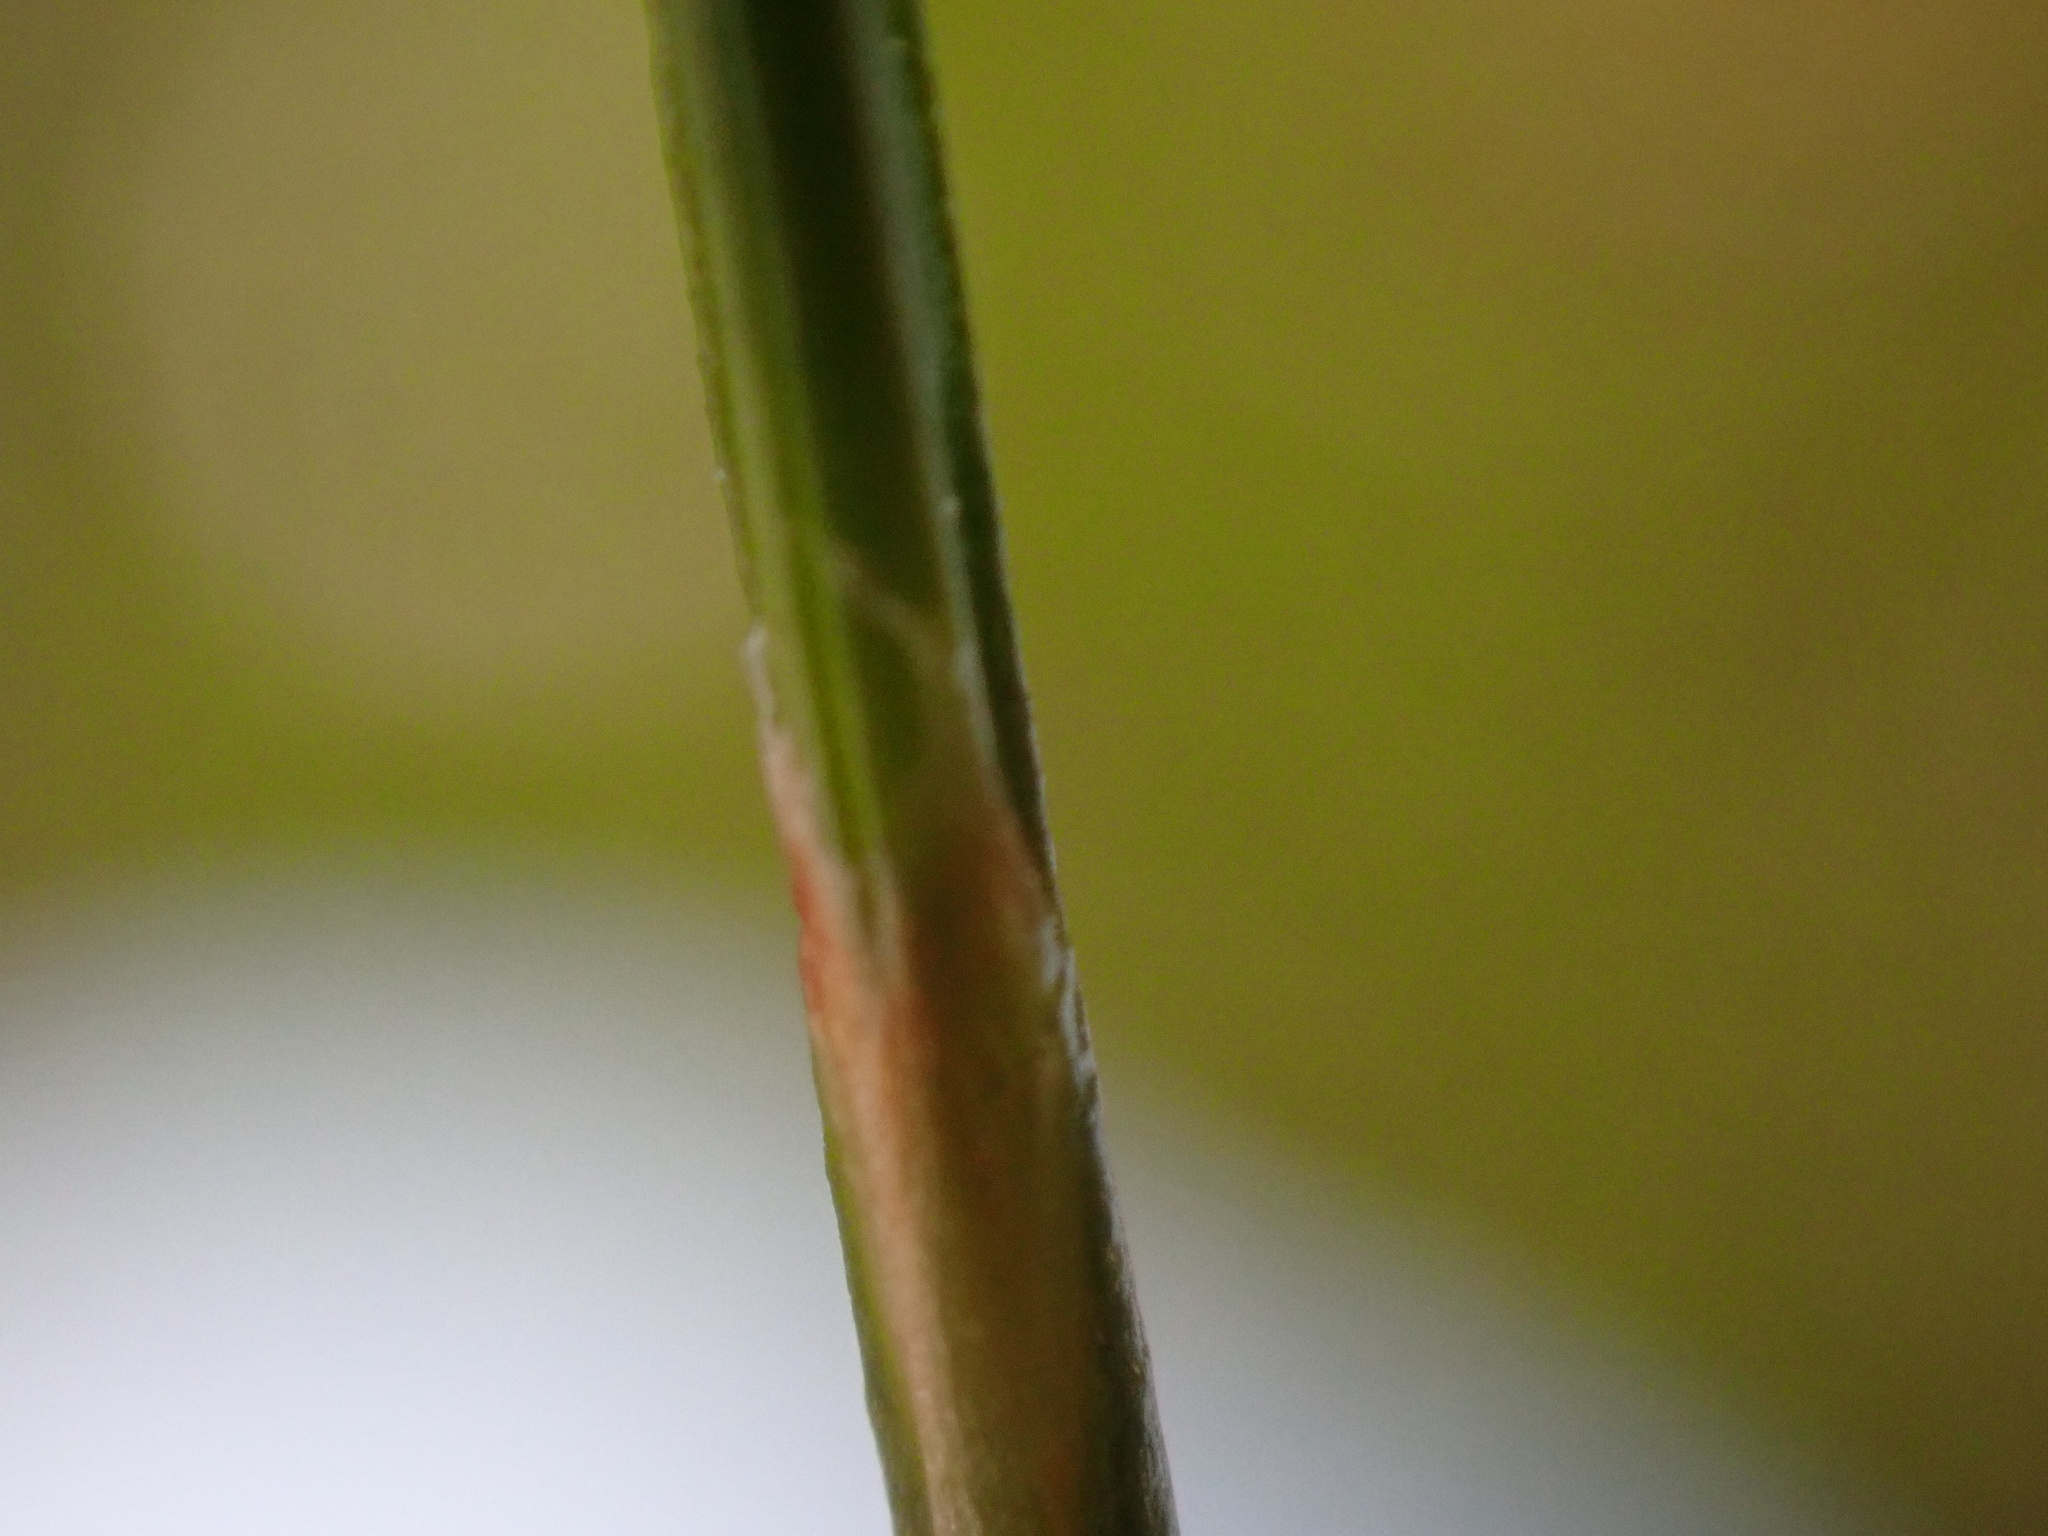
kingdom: Plantae
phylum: Tracheophyta
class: Liliopsida
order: Poales
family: Juncaceae
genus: Oreojuncus
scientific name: Oreojuncus trifidus
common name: Highland rush
